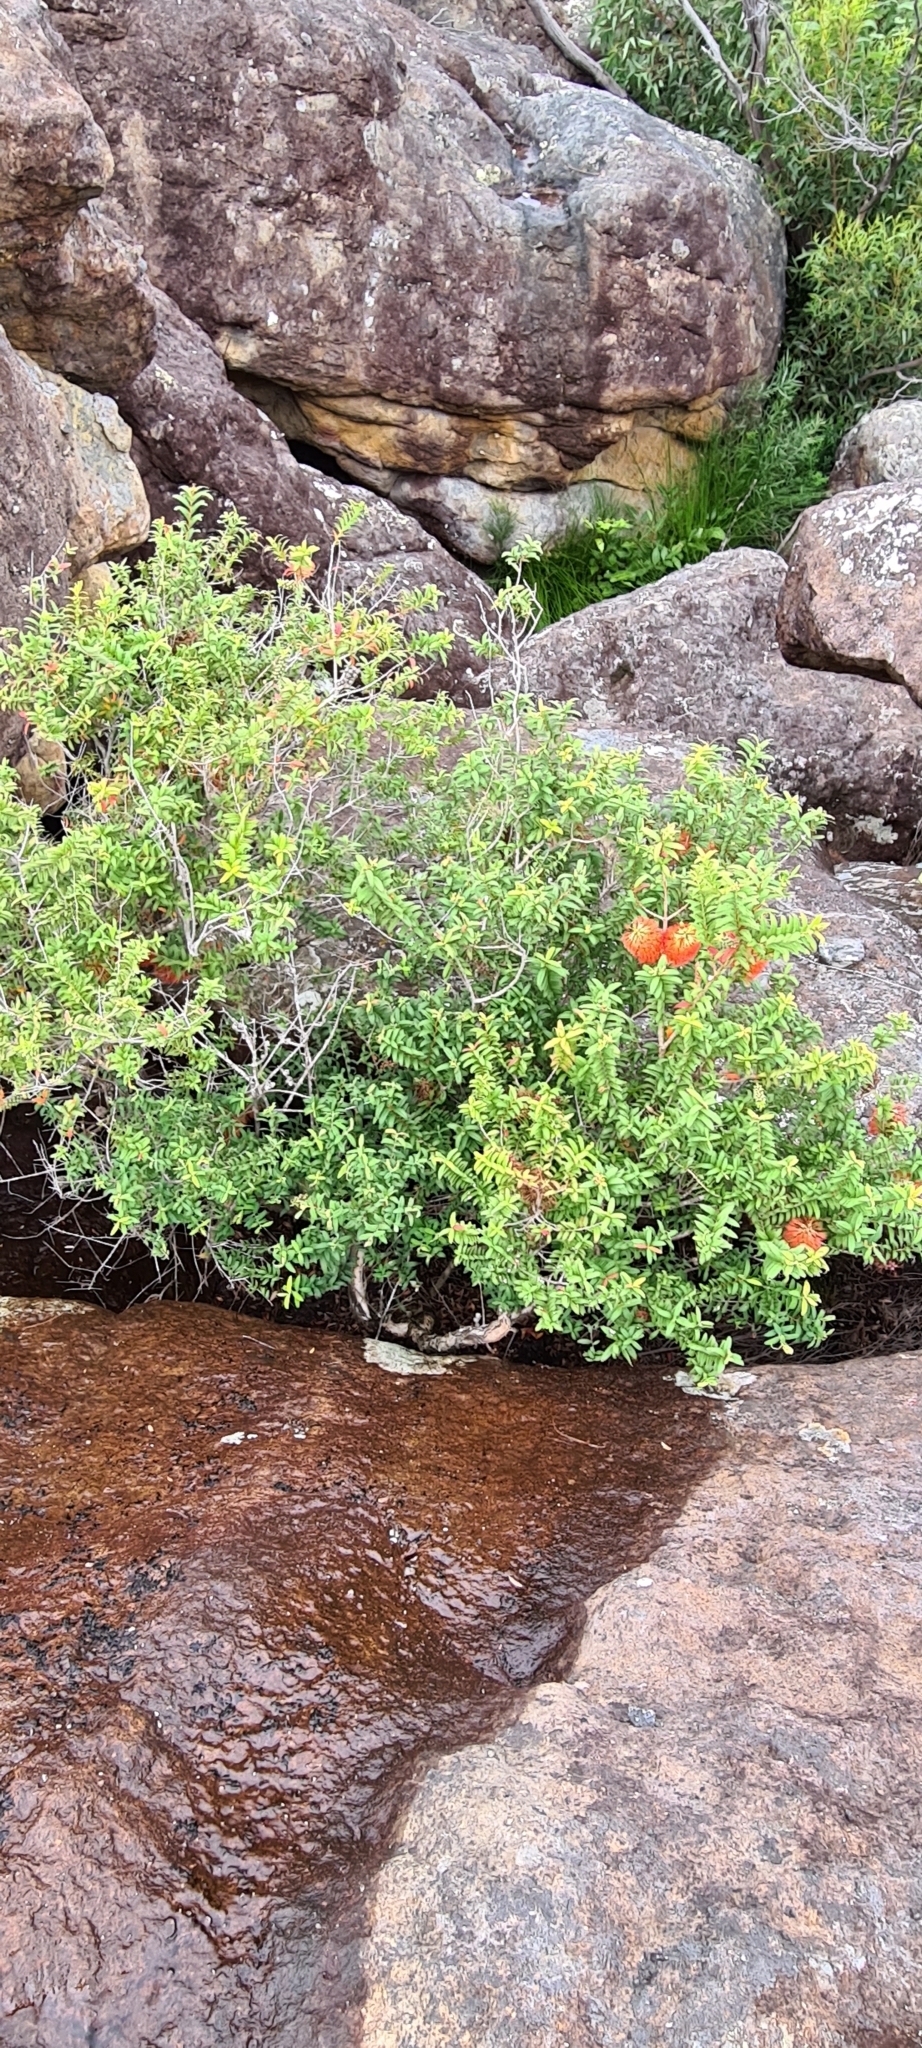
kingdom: Plantae
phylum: Tracheophyta
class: Magnoliopsida
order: Myrtales
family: Myrtaceae
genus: Melaleuca
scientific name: Melaleuca hypericifolia
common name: Red honey myrtle
